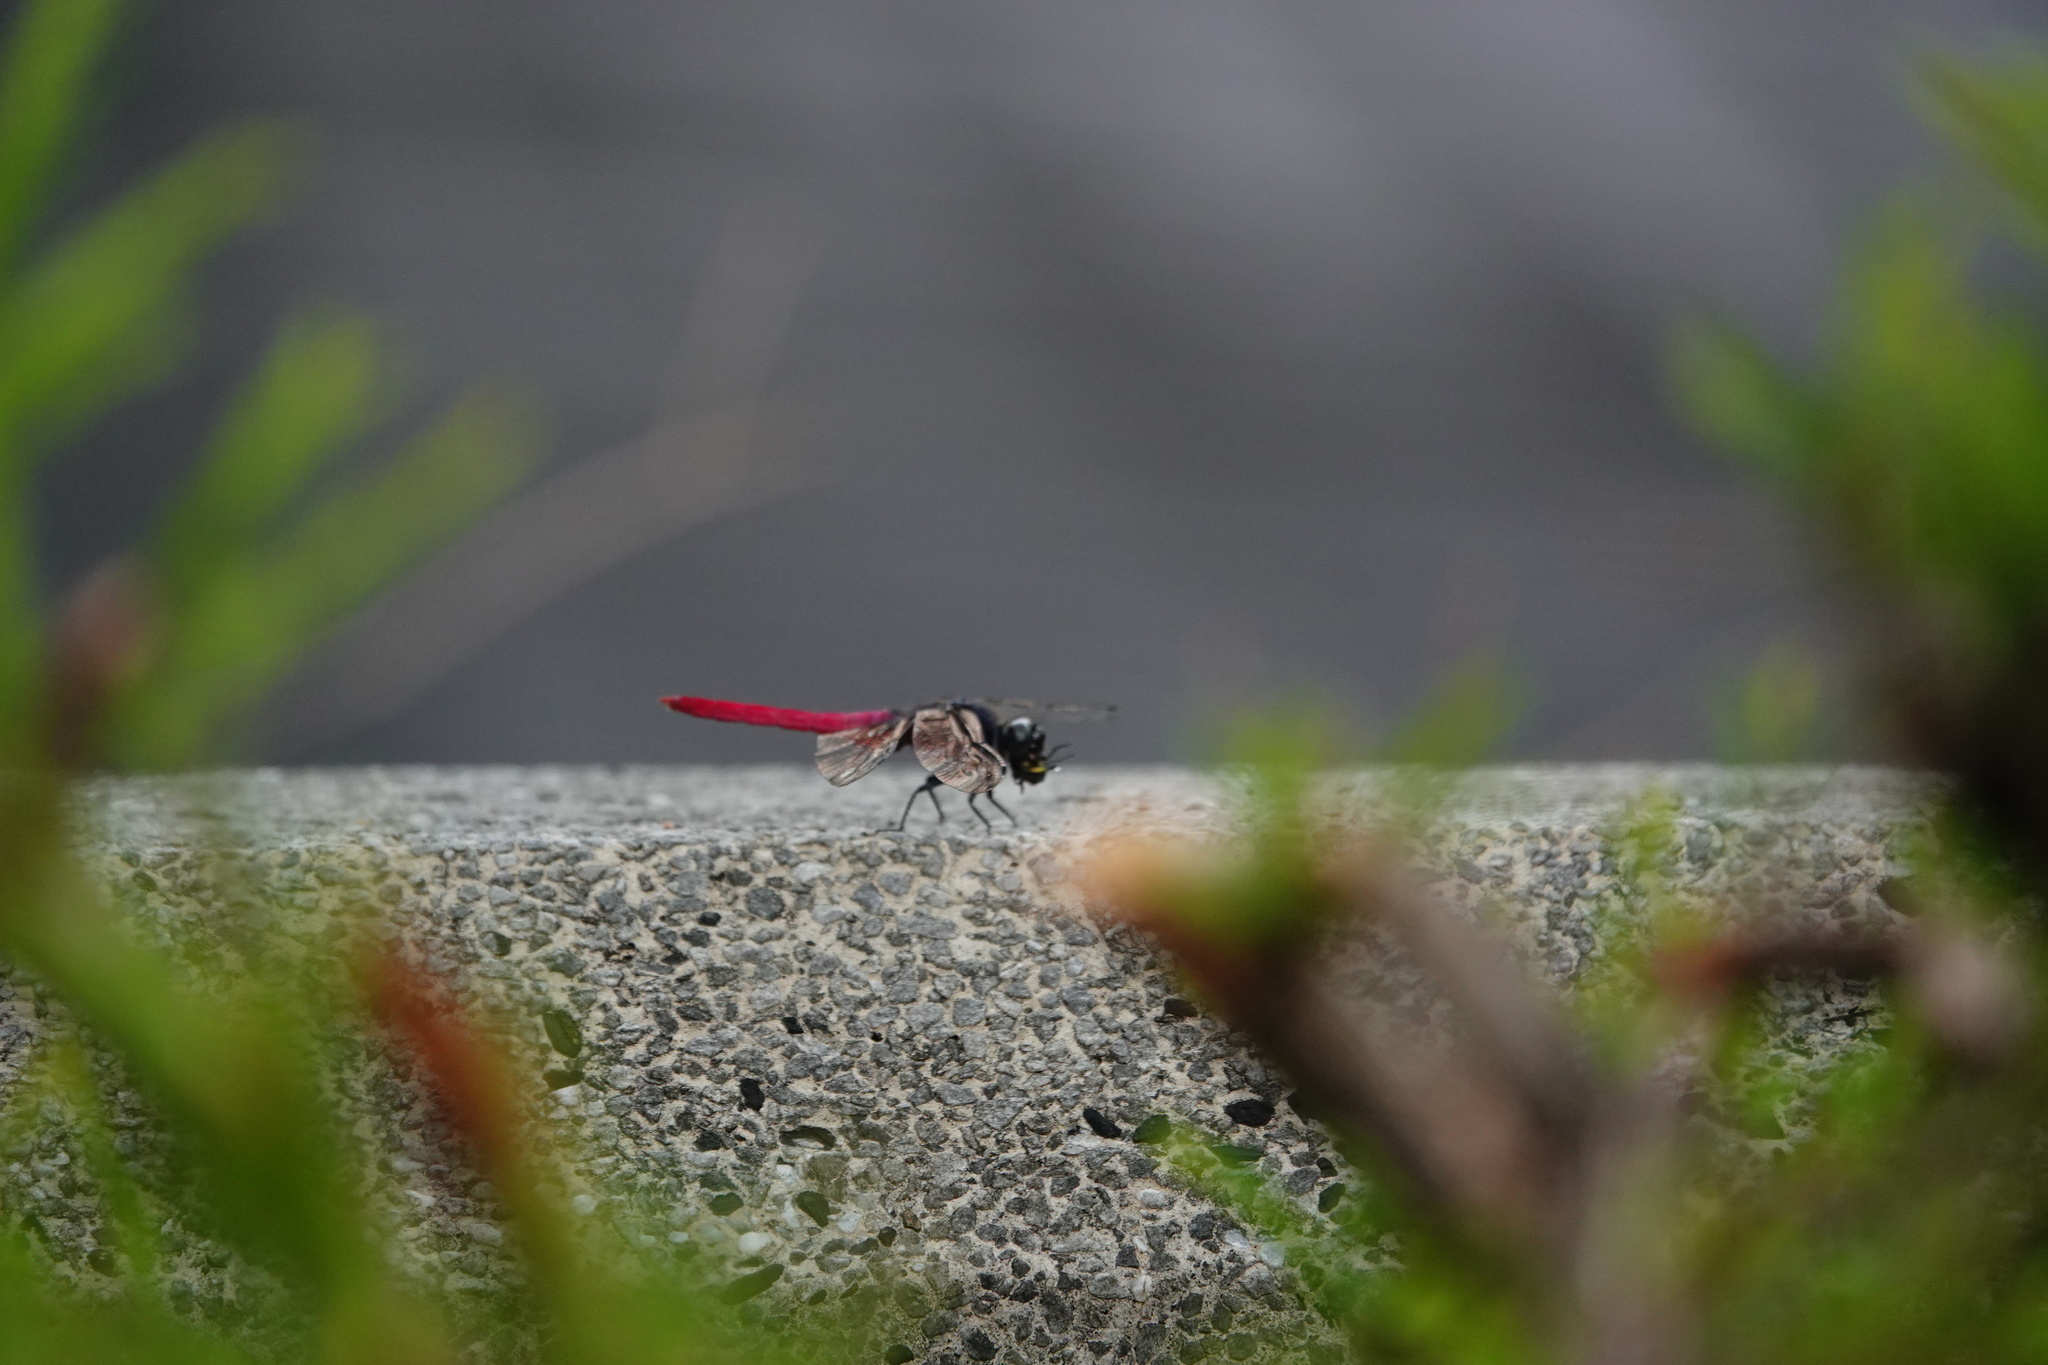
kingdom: Animalia
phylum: Arthropoda
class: Insecta
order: Odonata
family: Libellulidae
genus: Orthetrum
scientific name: Orthetrum pruinosum
